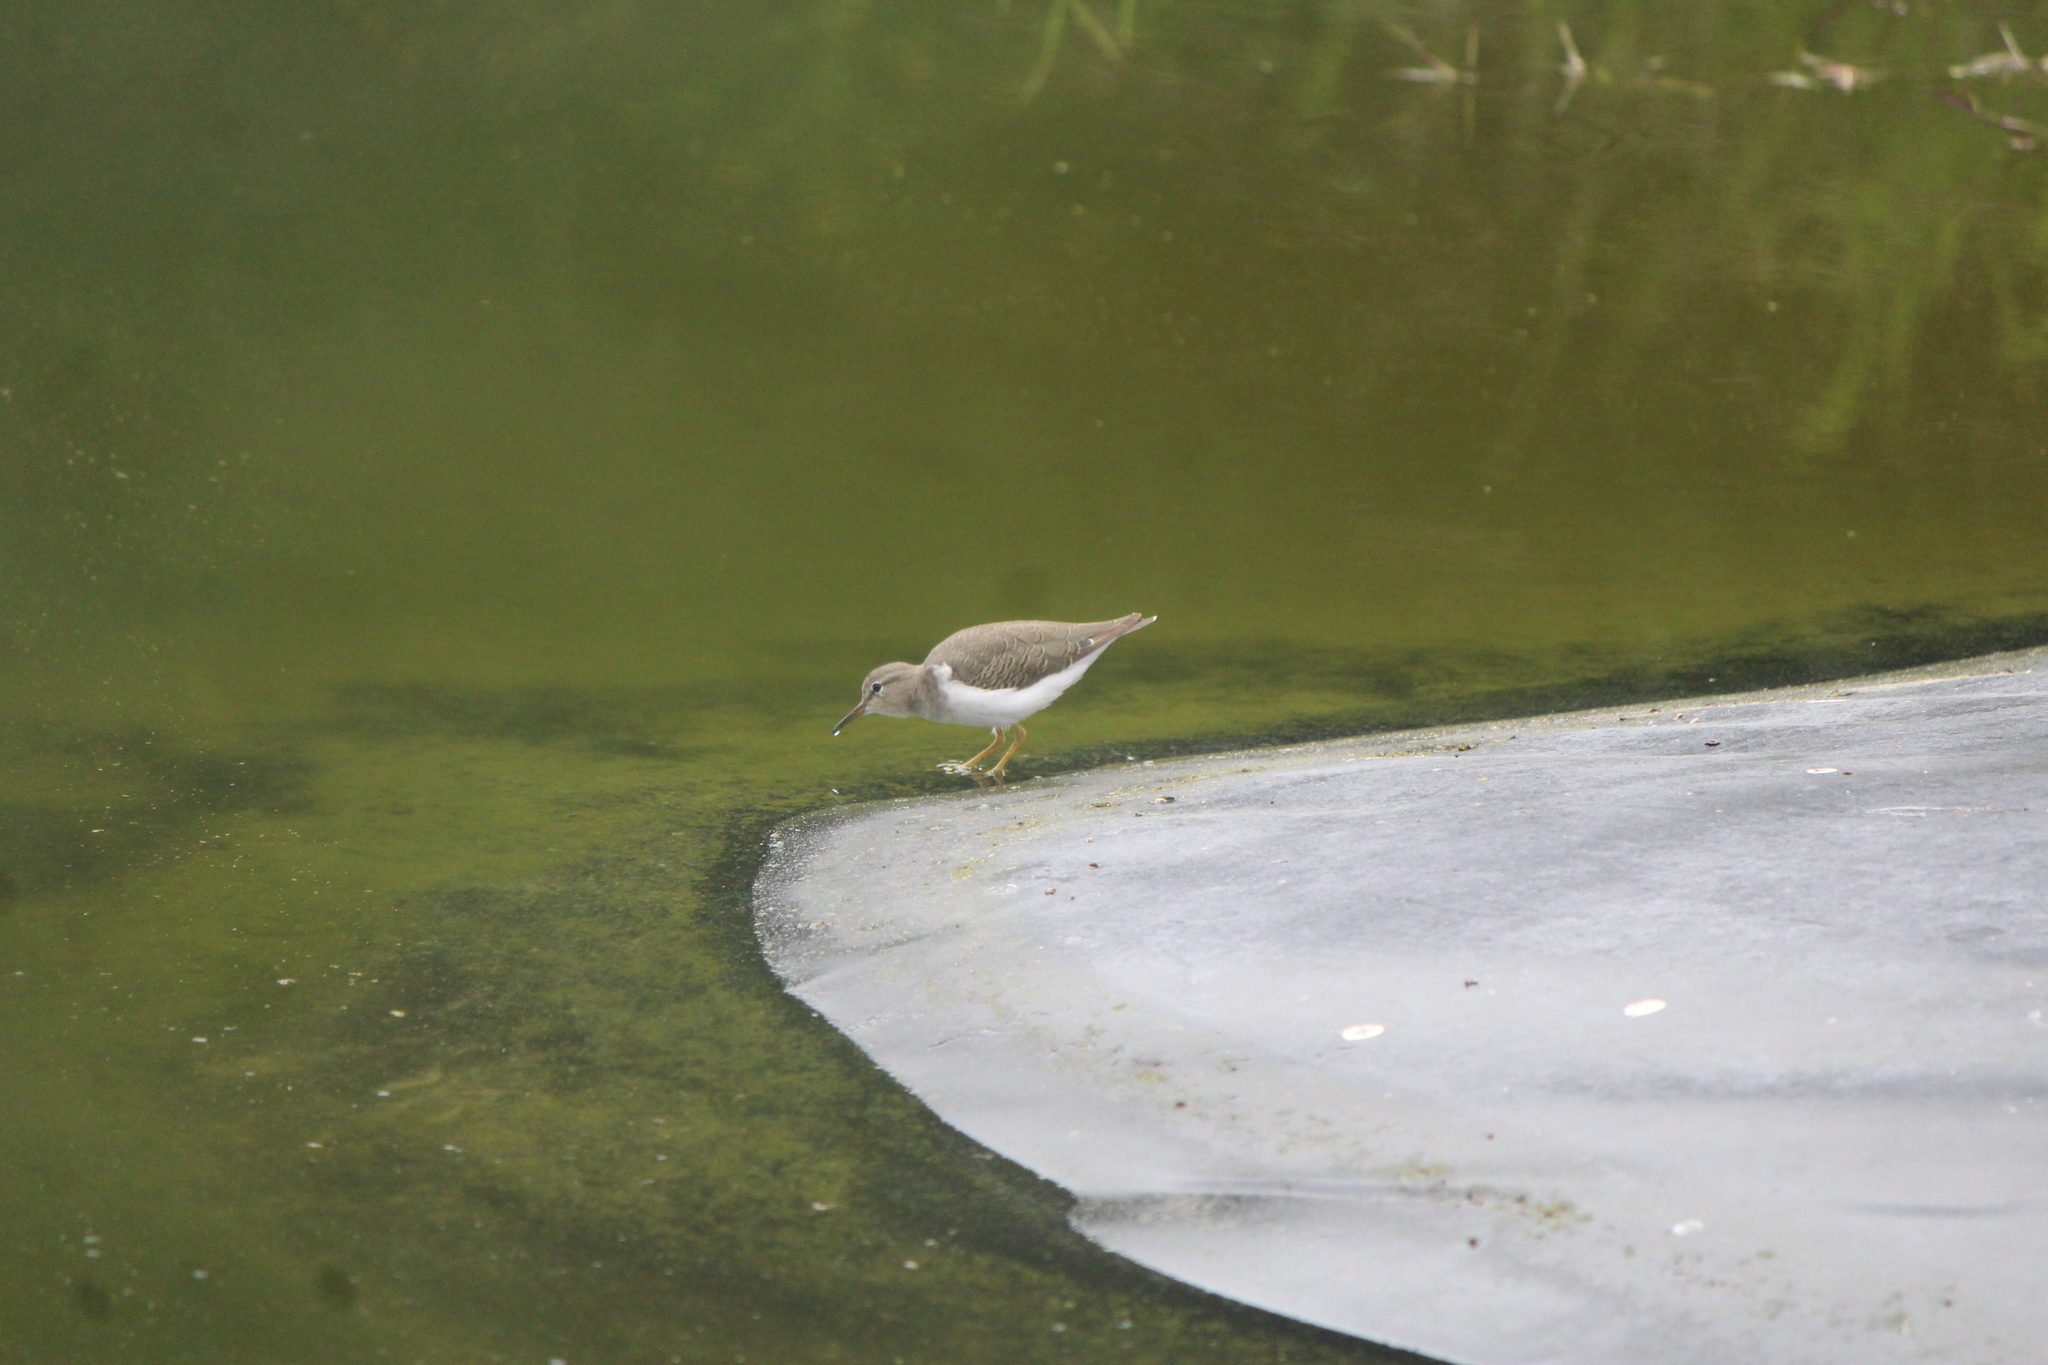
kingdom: Animalia
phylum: Chordata
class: Aves
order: Charadriiformes
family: Scolopacidae
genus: Actitis
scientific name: Actitis macularius
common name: Spotted sandpiper
